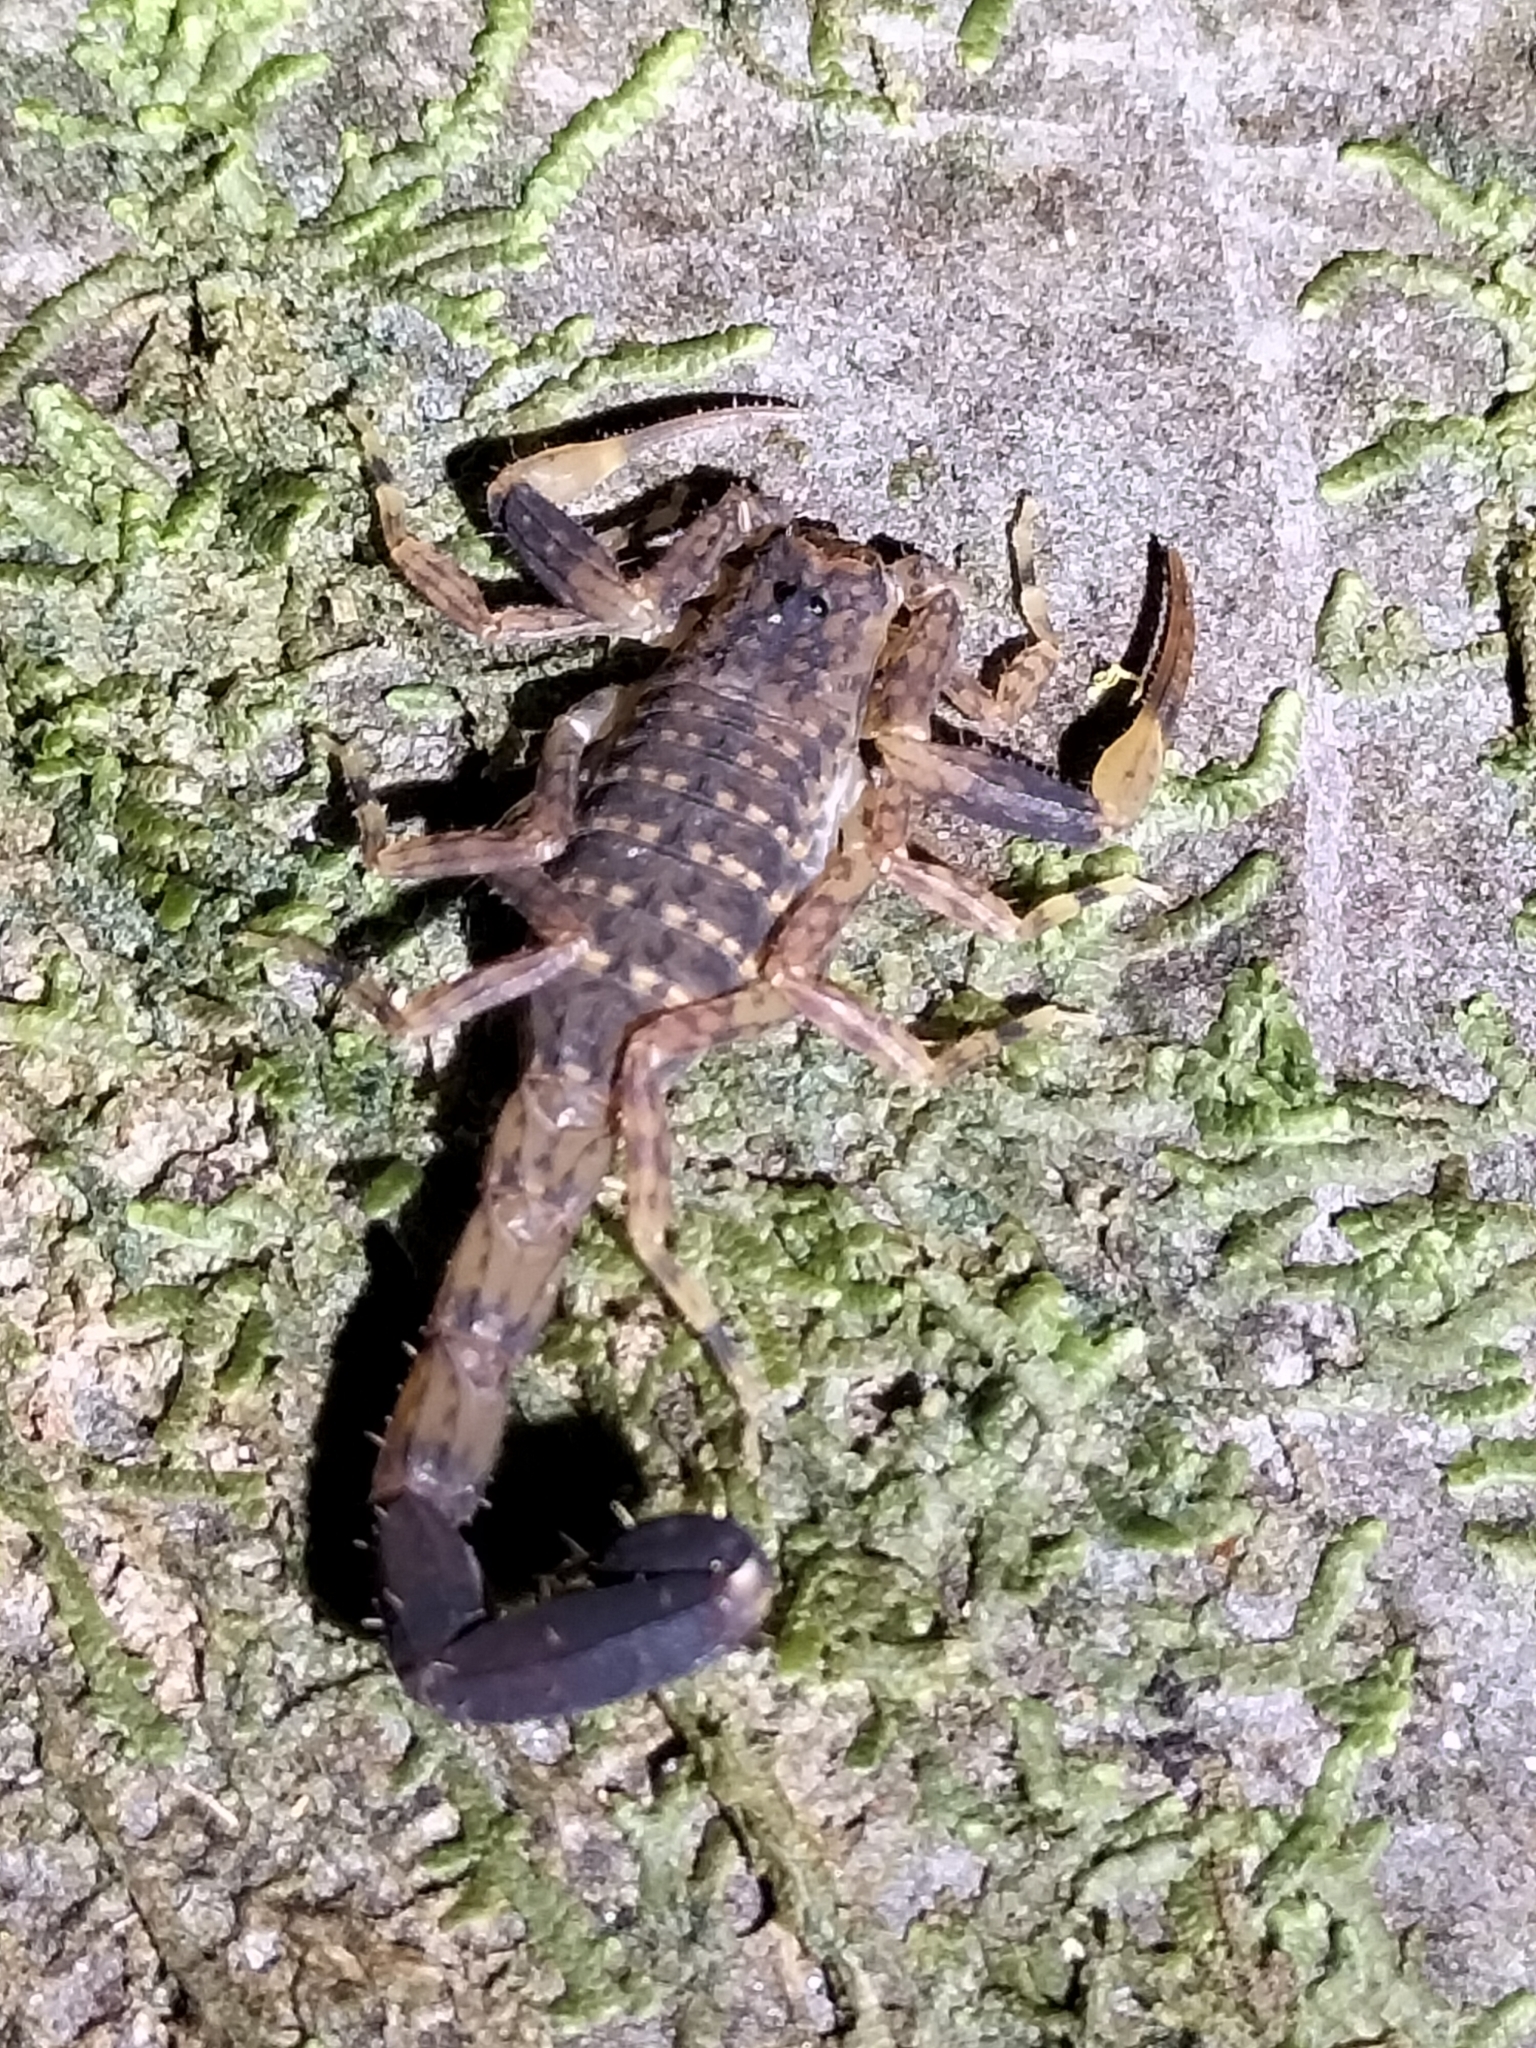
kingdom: Animalia
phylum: Arthropoda
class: Arachnida
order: Scorpiones
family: Buthidae
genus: Lychas
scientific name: Lychas variatus
